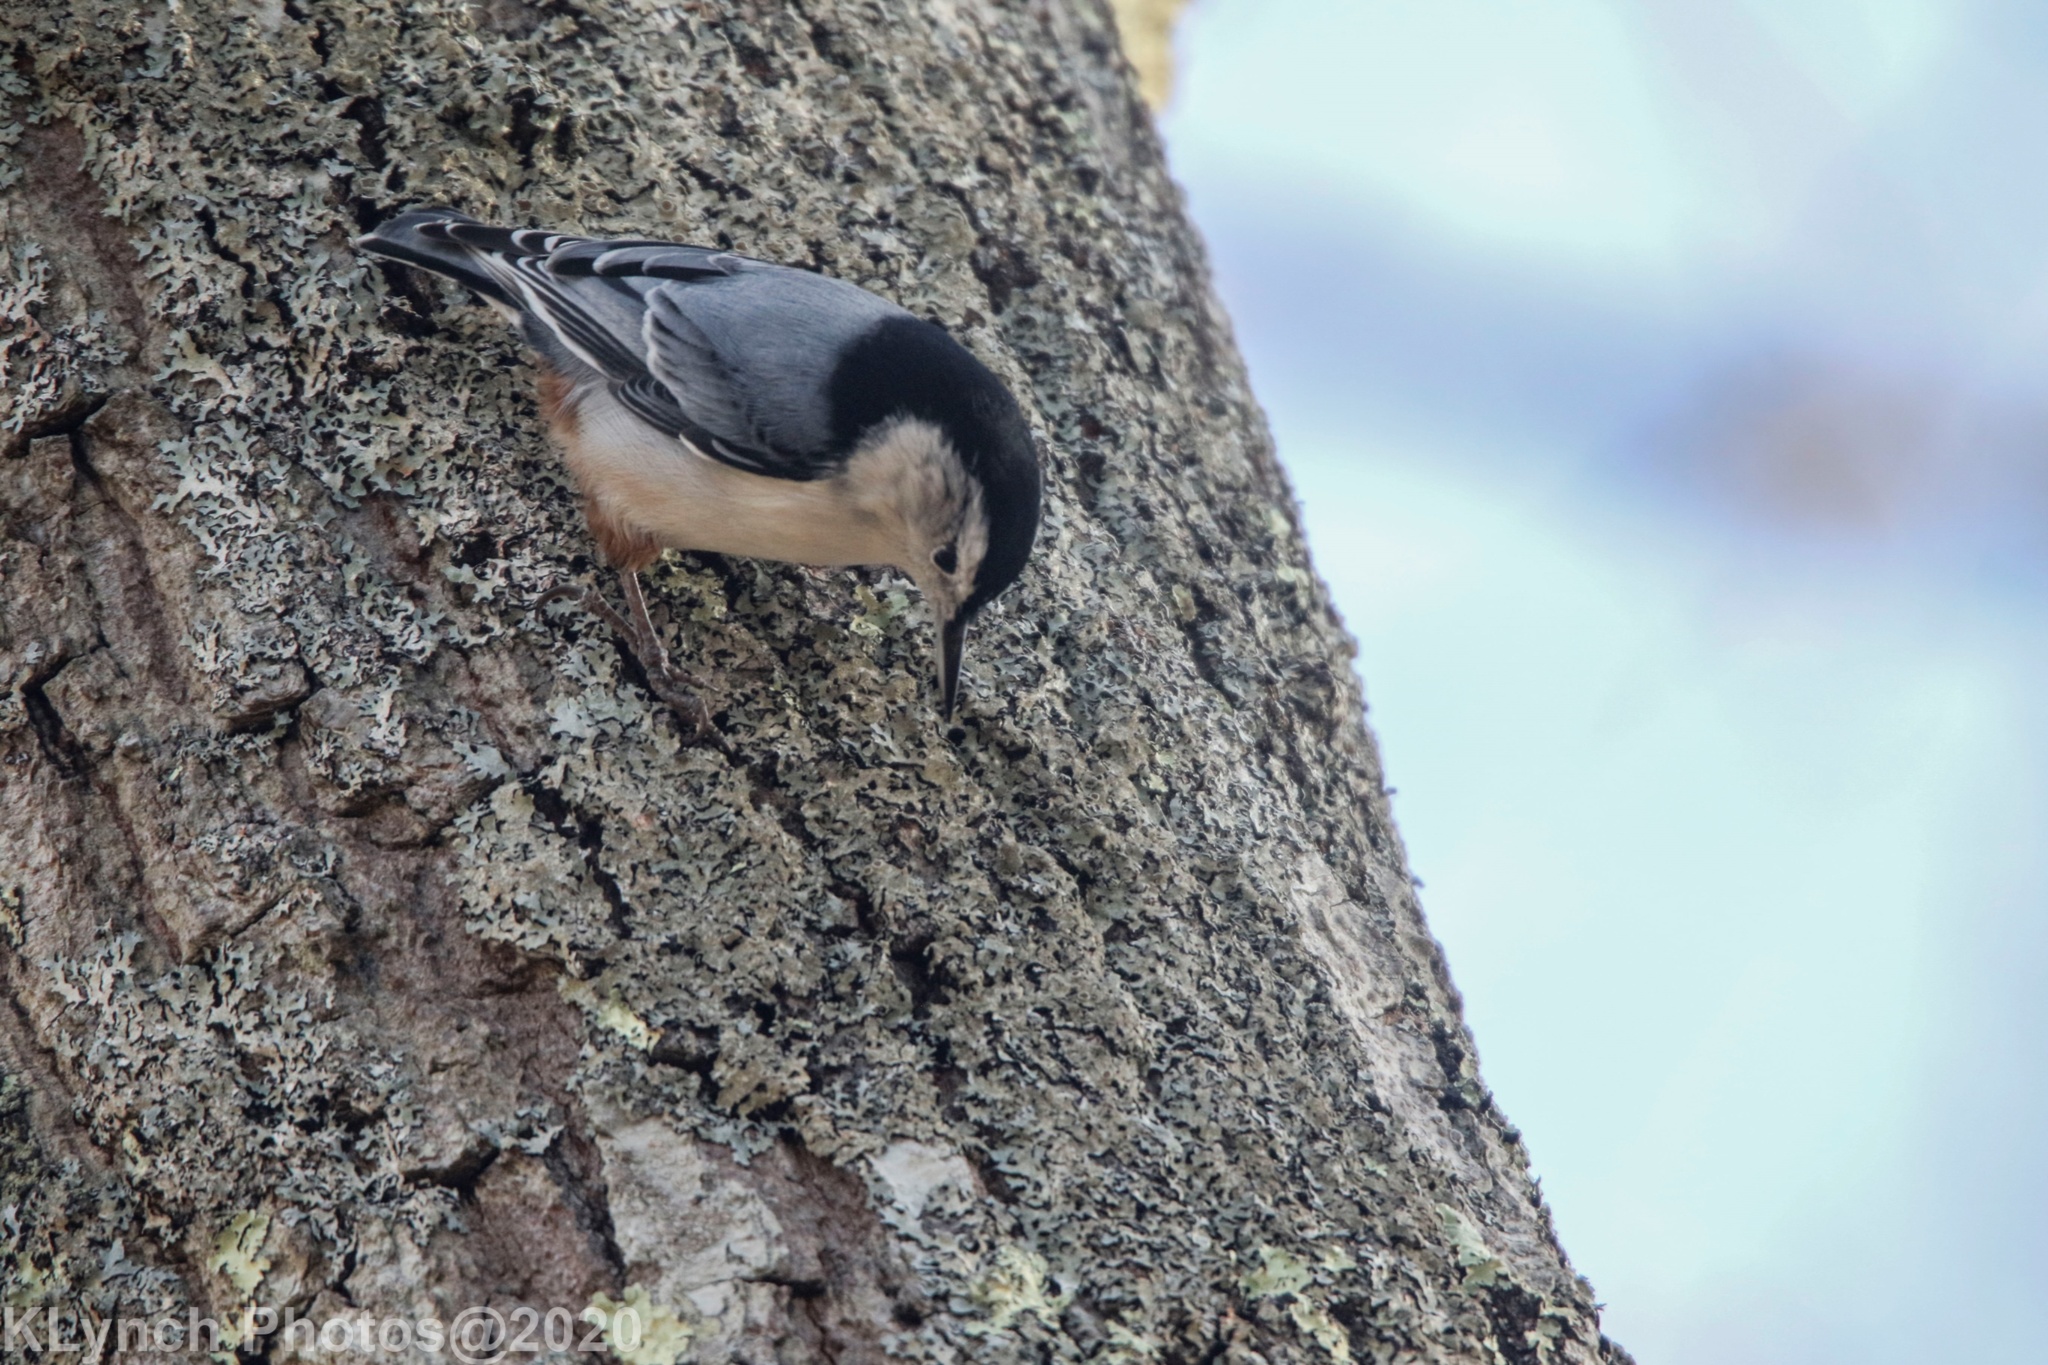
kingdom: Animalia
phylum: Chordata
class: Aves
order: Passeriformes
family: Sittidae
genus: Sitta
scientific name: Sitta carolinensis
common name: White-breasted nuthatch
